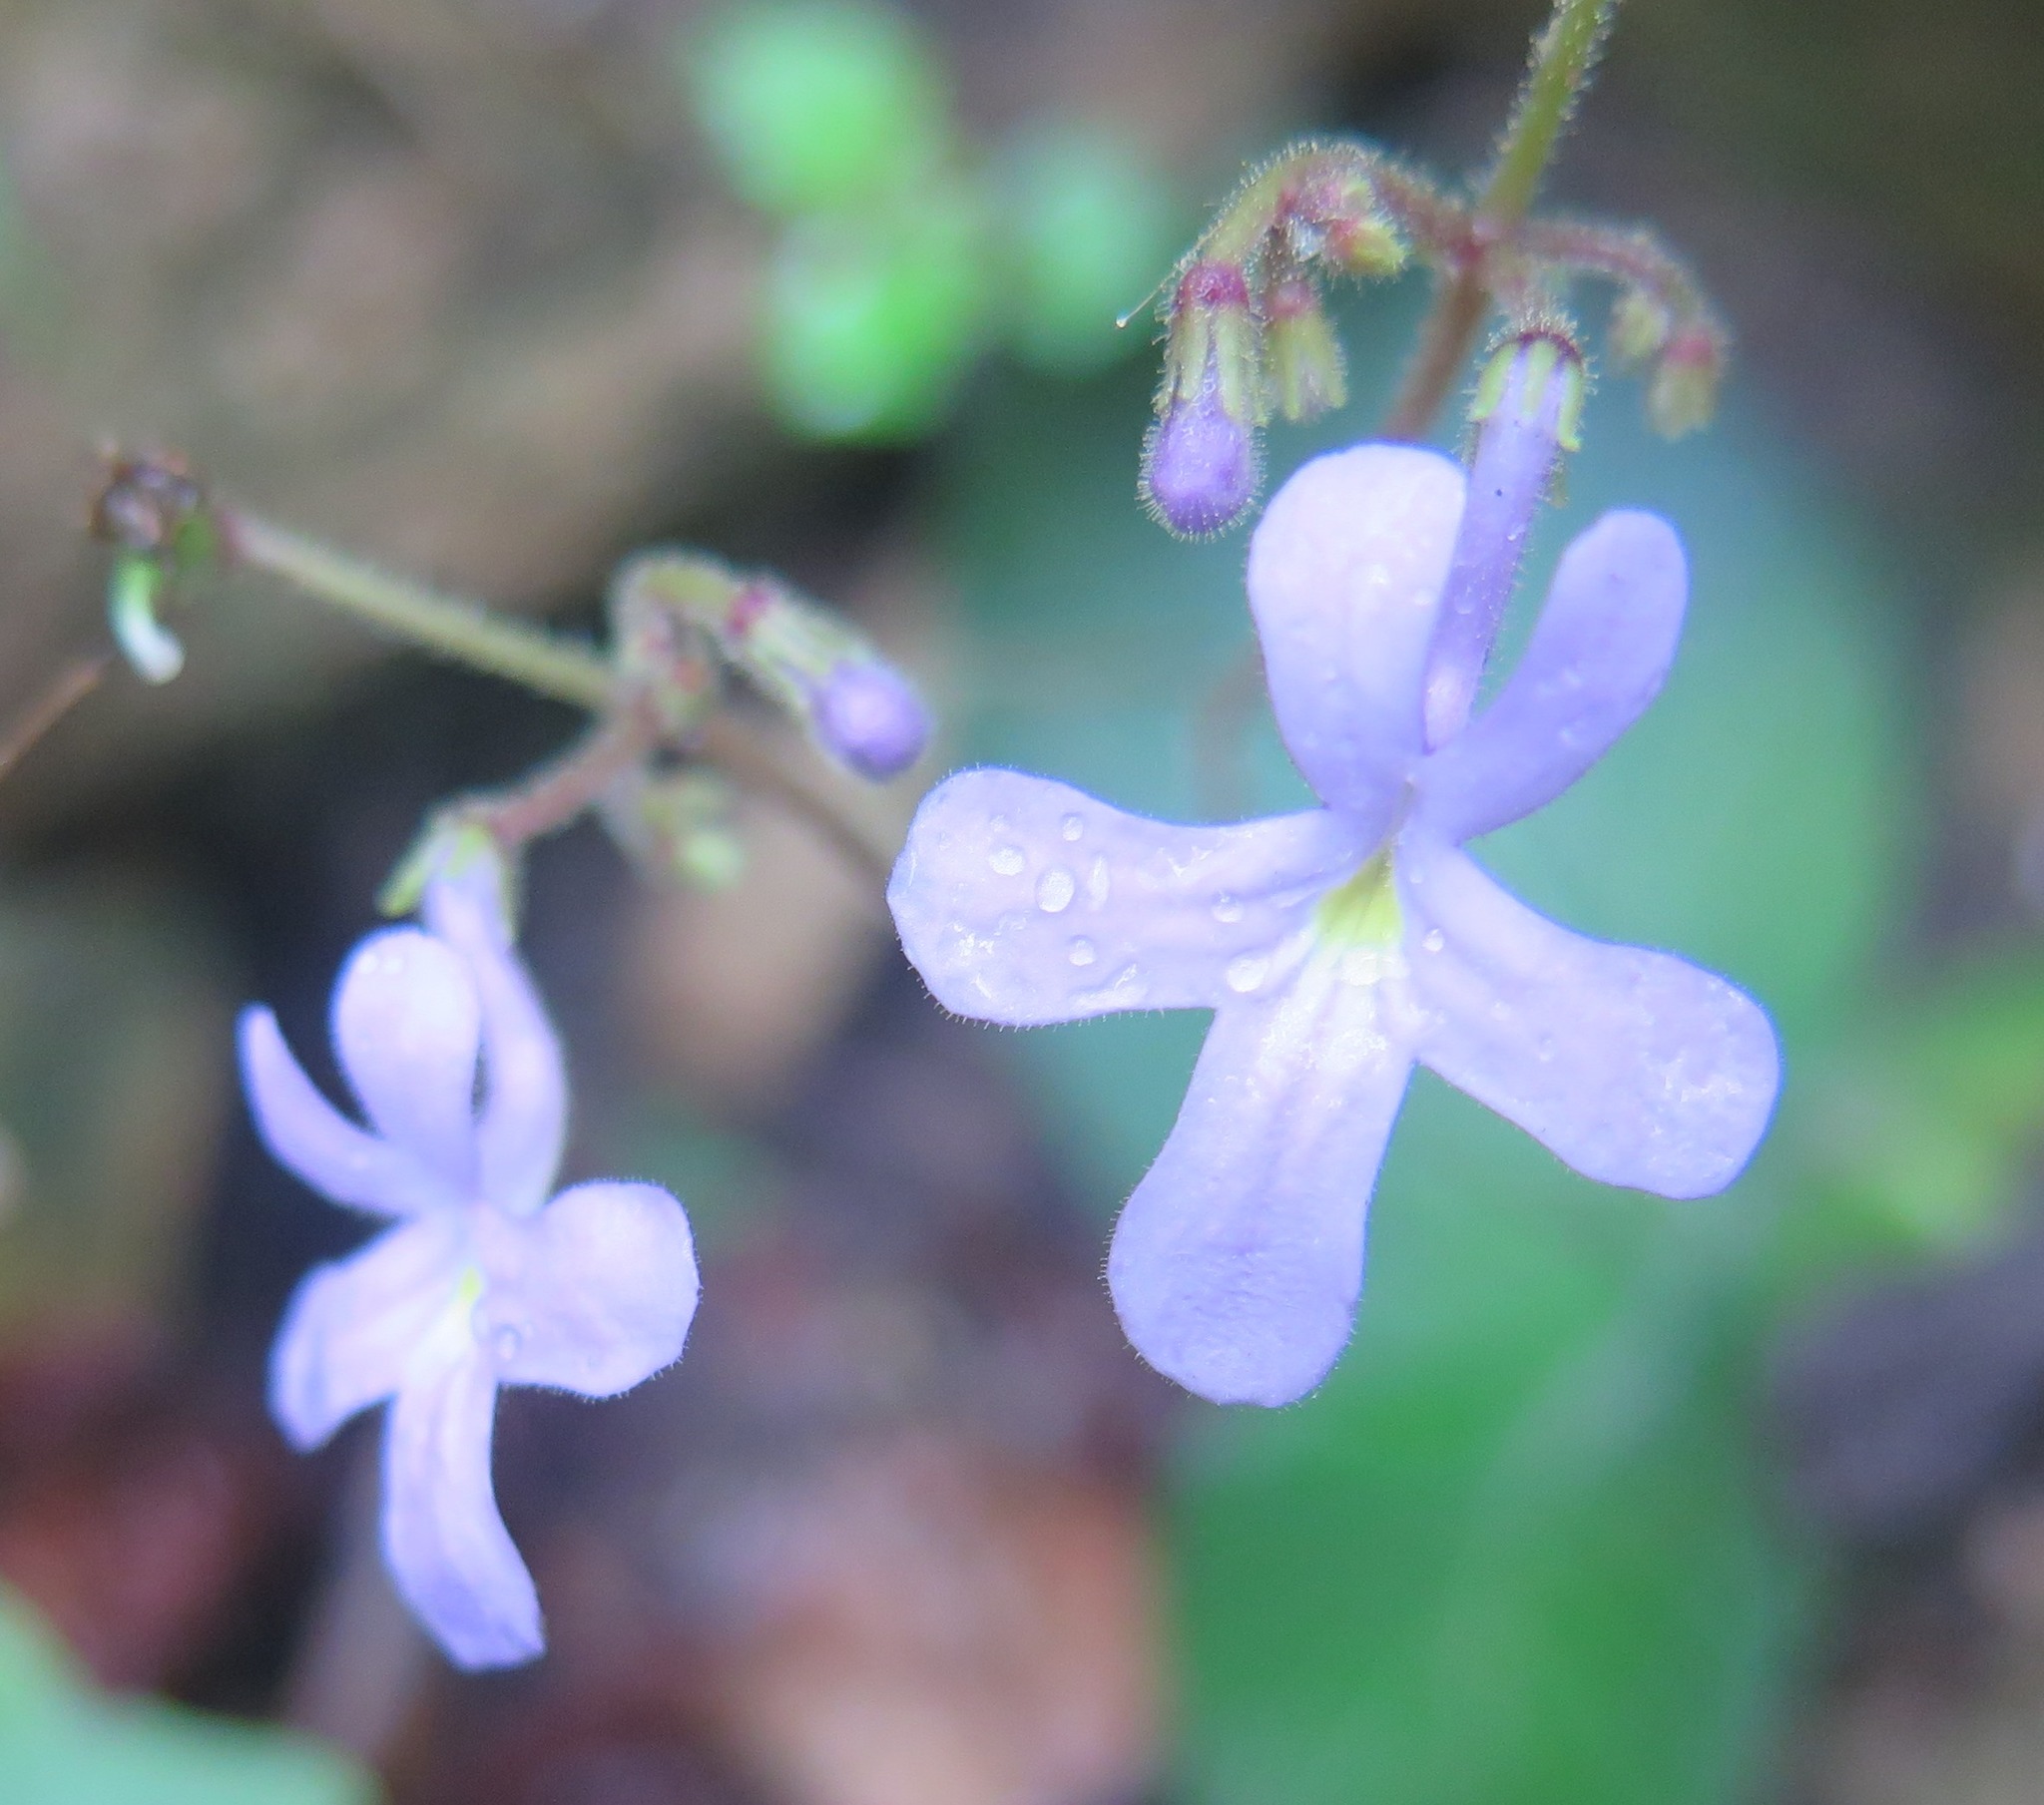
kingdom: Plantae
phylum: Tracheophyta
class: Magnoliopsida
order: Lamiales
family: Gesneriaceae
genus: Streptocarpus
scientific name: Streptocarpus prolixus
